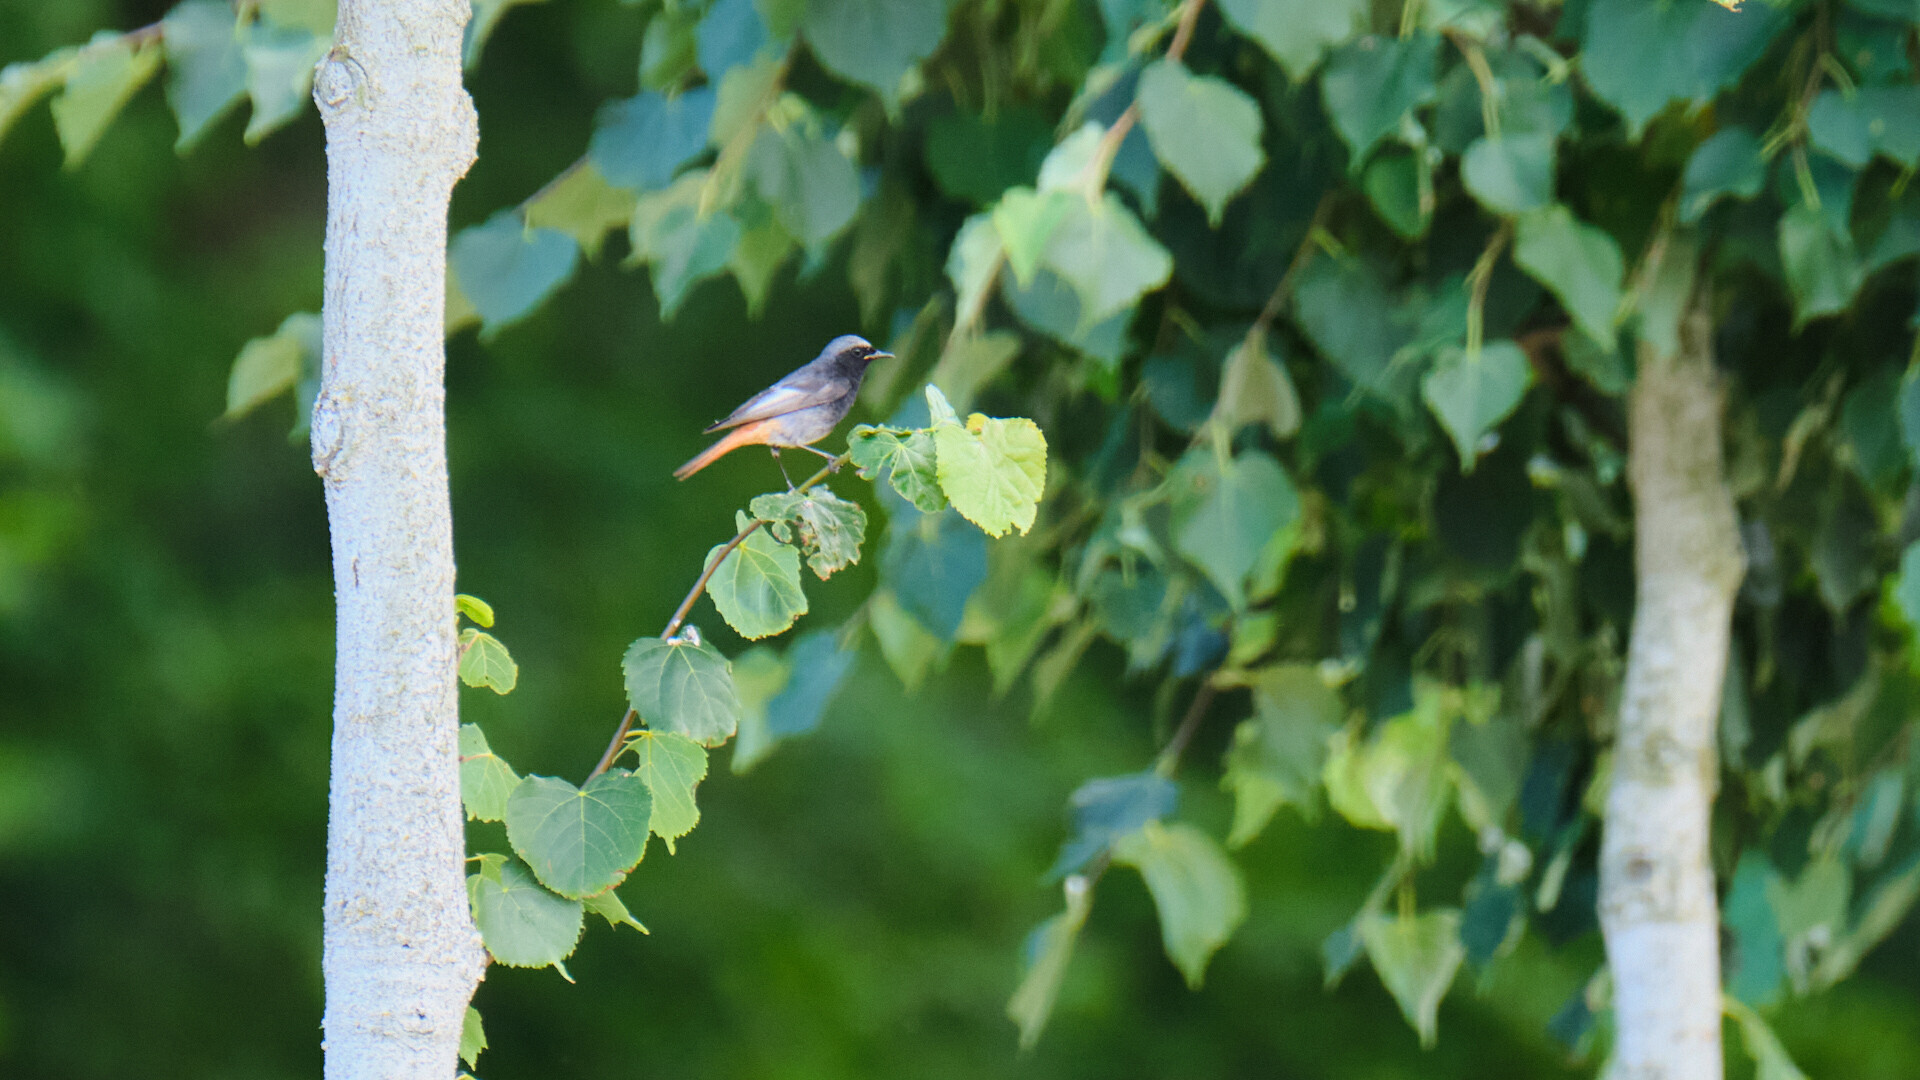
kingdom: Animalia
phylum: Chordata
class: Aves
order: Passeriformes
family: Muscicapidae
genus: Phoenicurus
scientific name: Phoenicurus ochruros
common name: Black redstart
